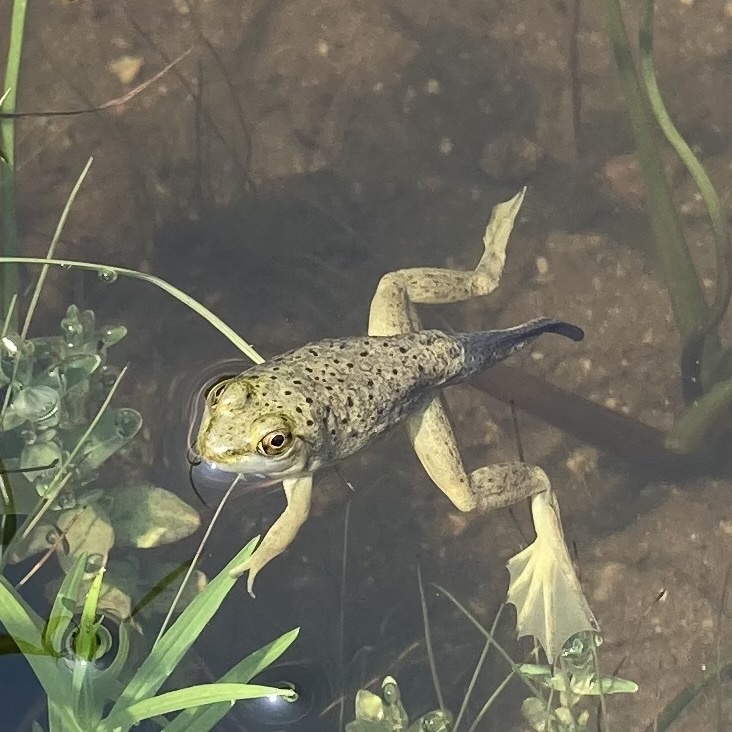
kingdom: Animalia
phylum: Chordata
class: Amphibia
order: Anura
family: Ranidae
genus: Lithobates
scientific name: Lithobates catesbeianus
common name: American bullfrog
